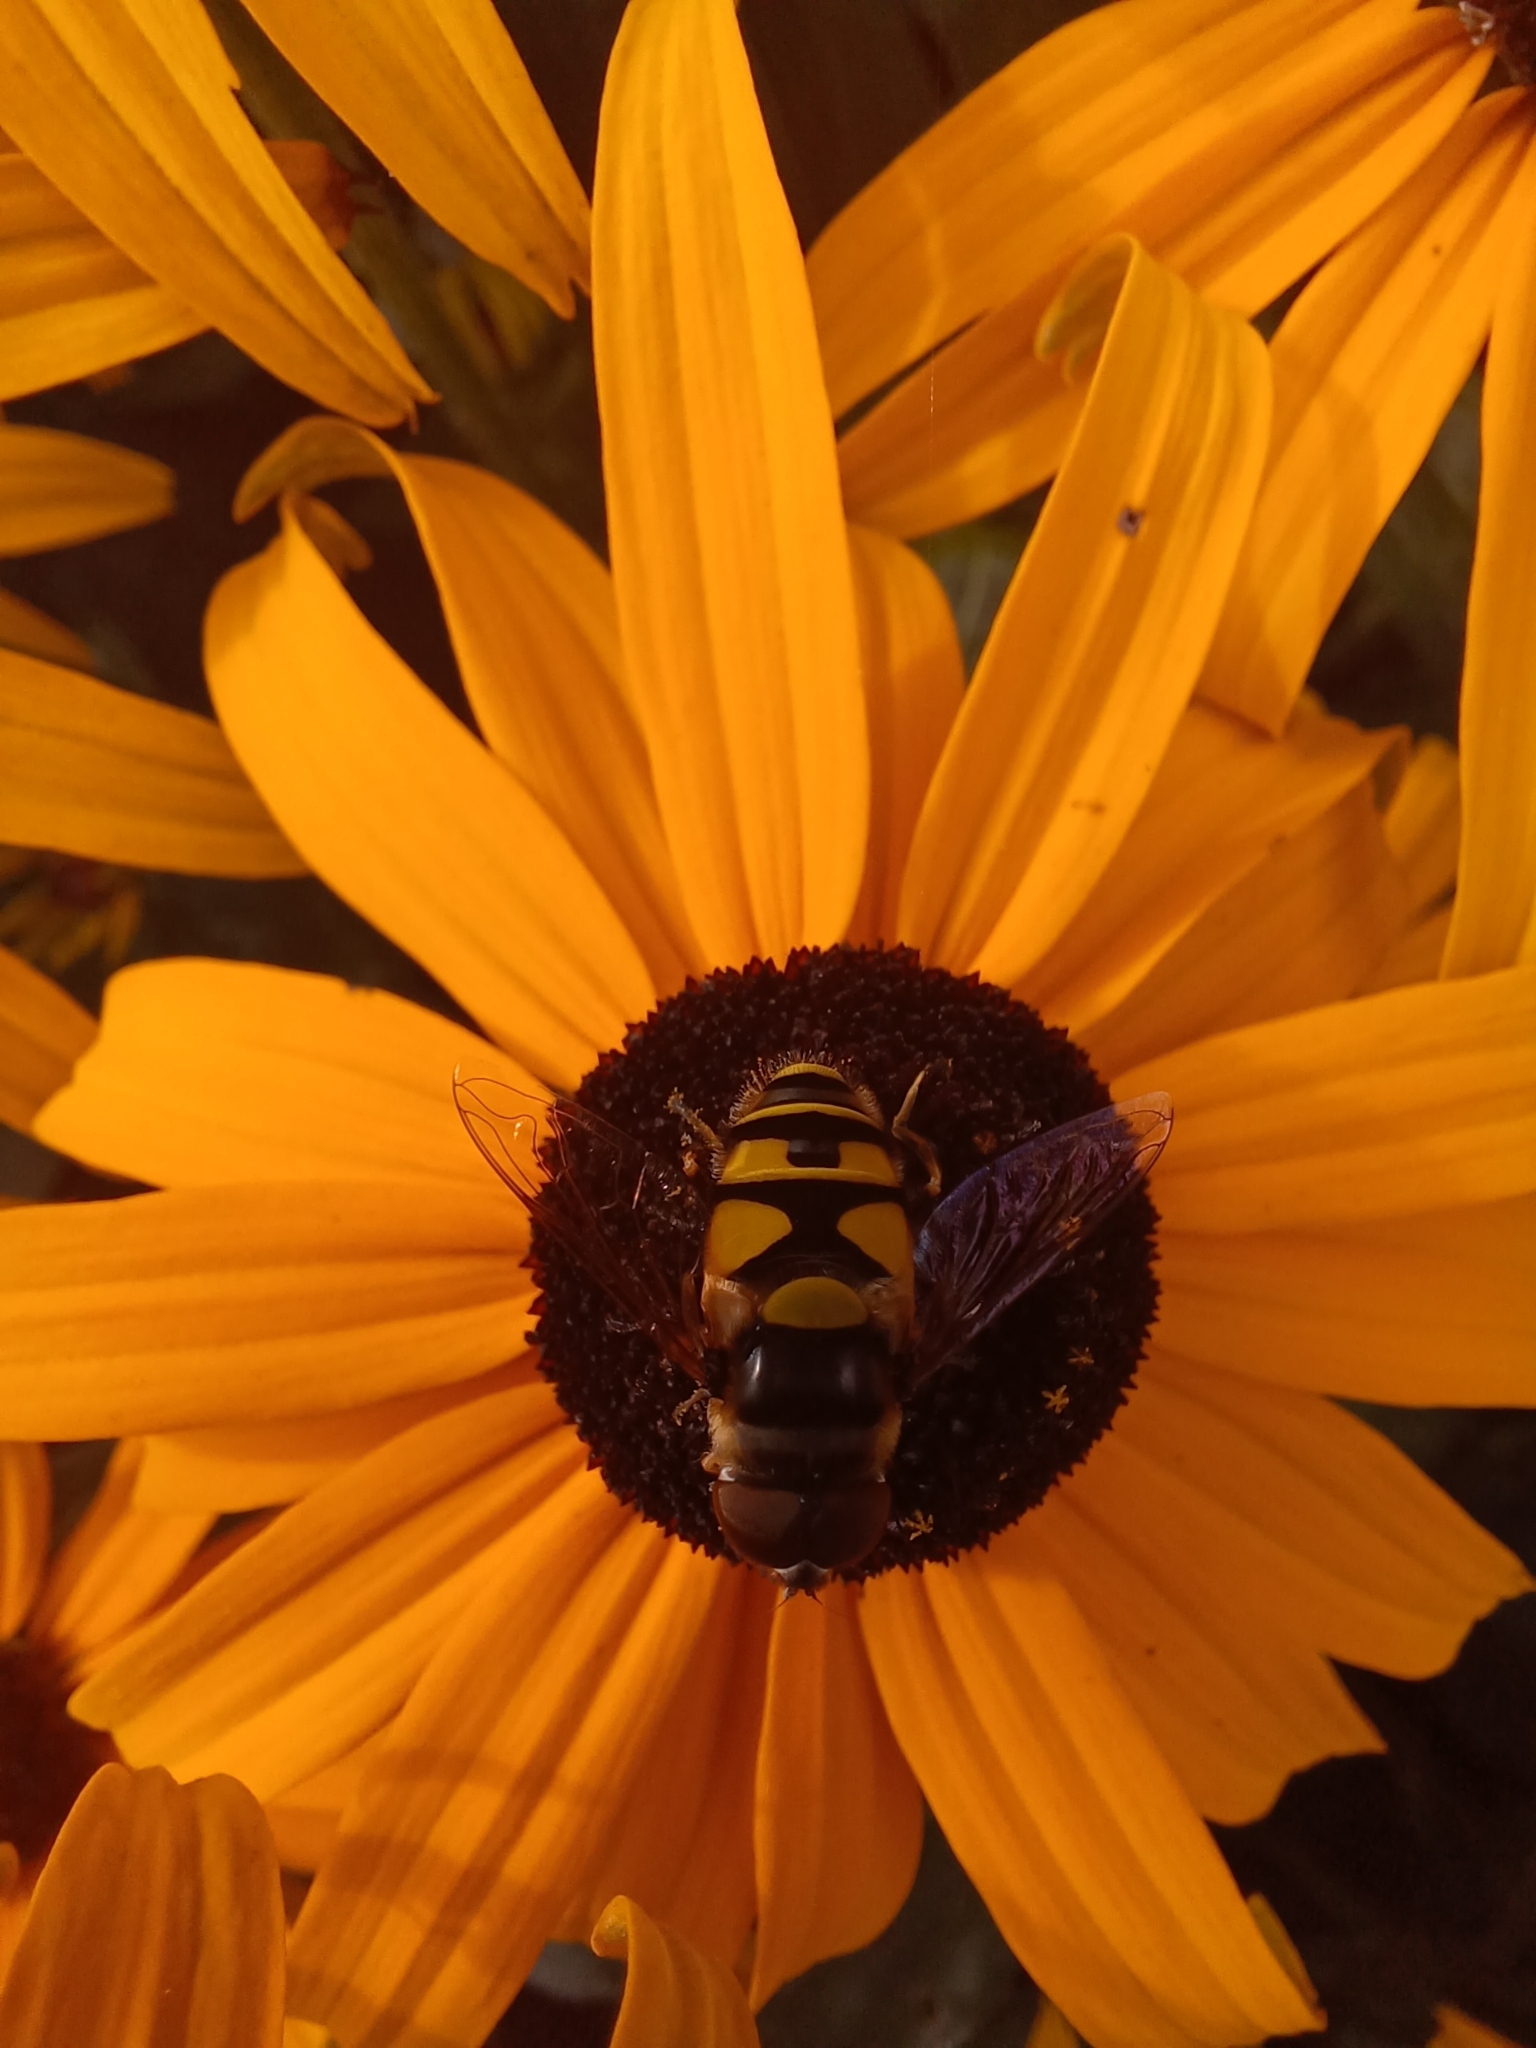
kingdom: Animalia
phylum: Arthropoda
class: Insecta
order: Diptera
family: Syrphidae
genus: Eristalis
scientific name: Eristalis transversa
